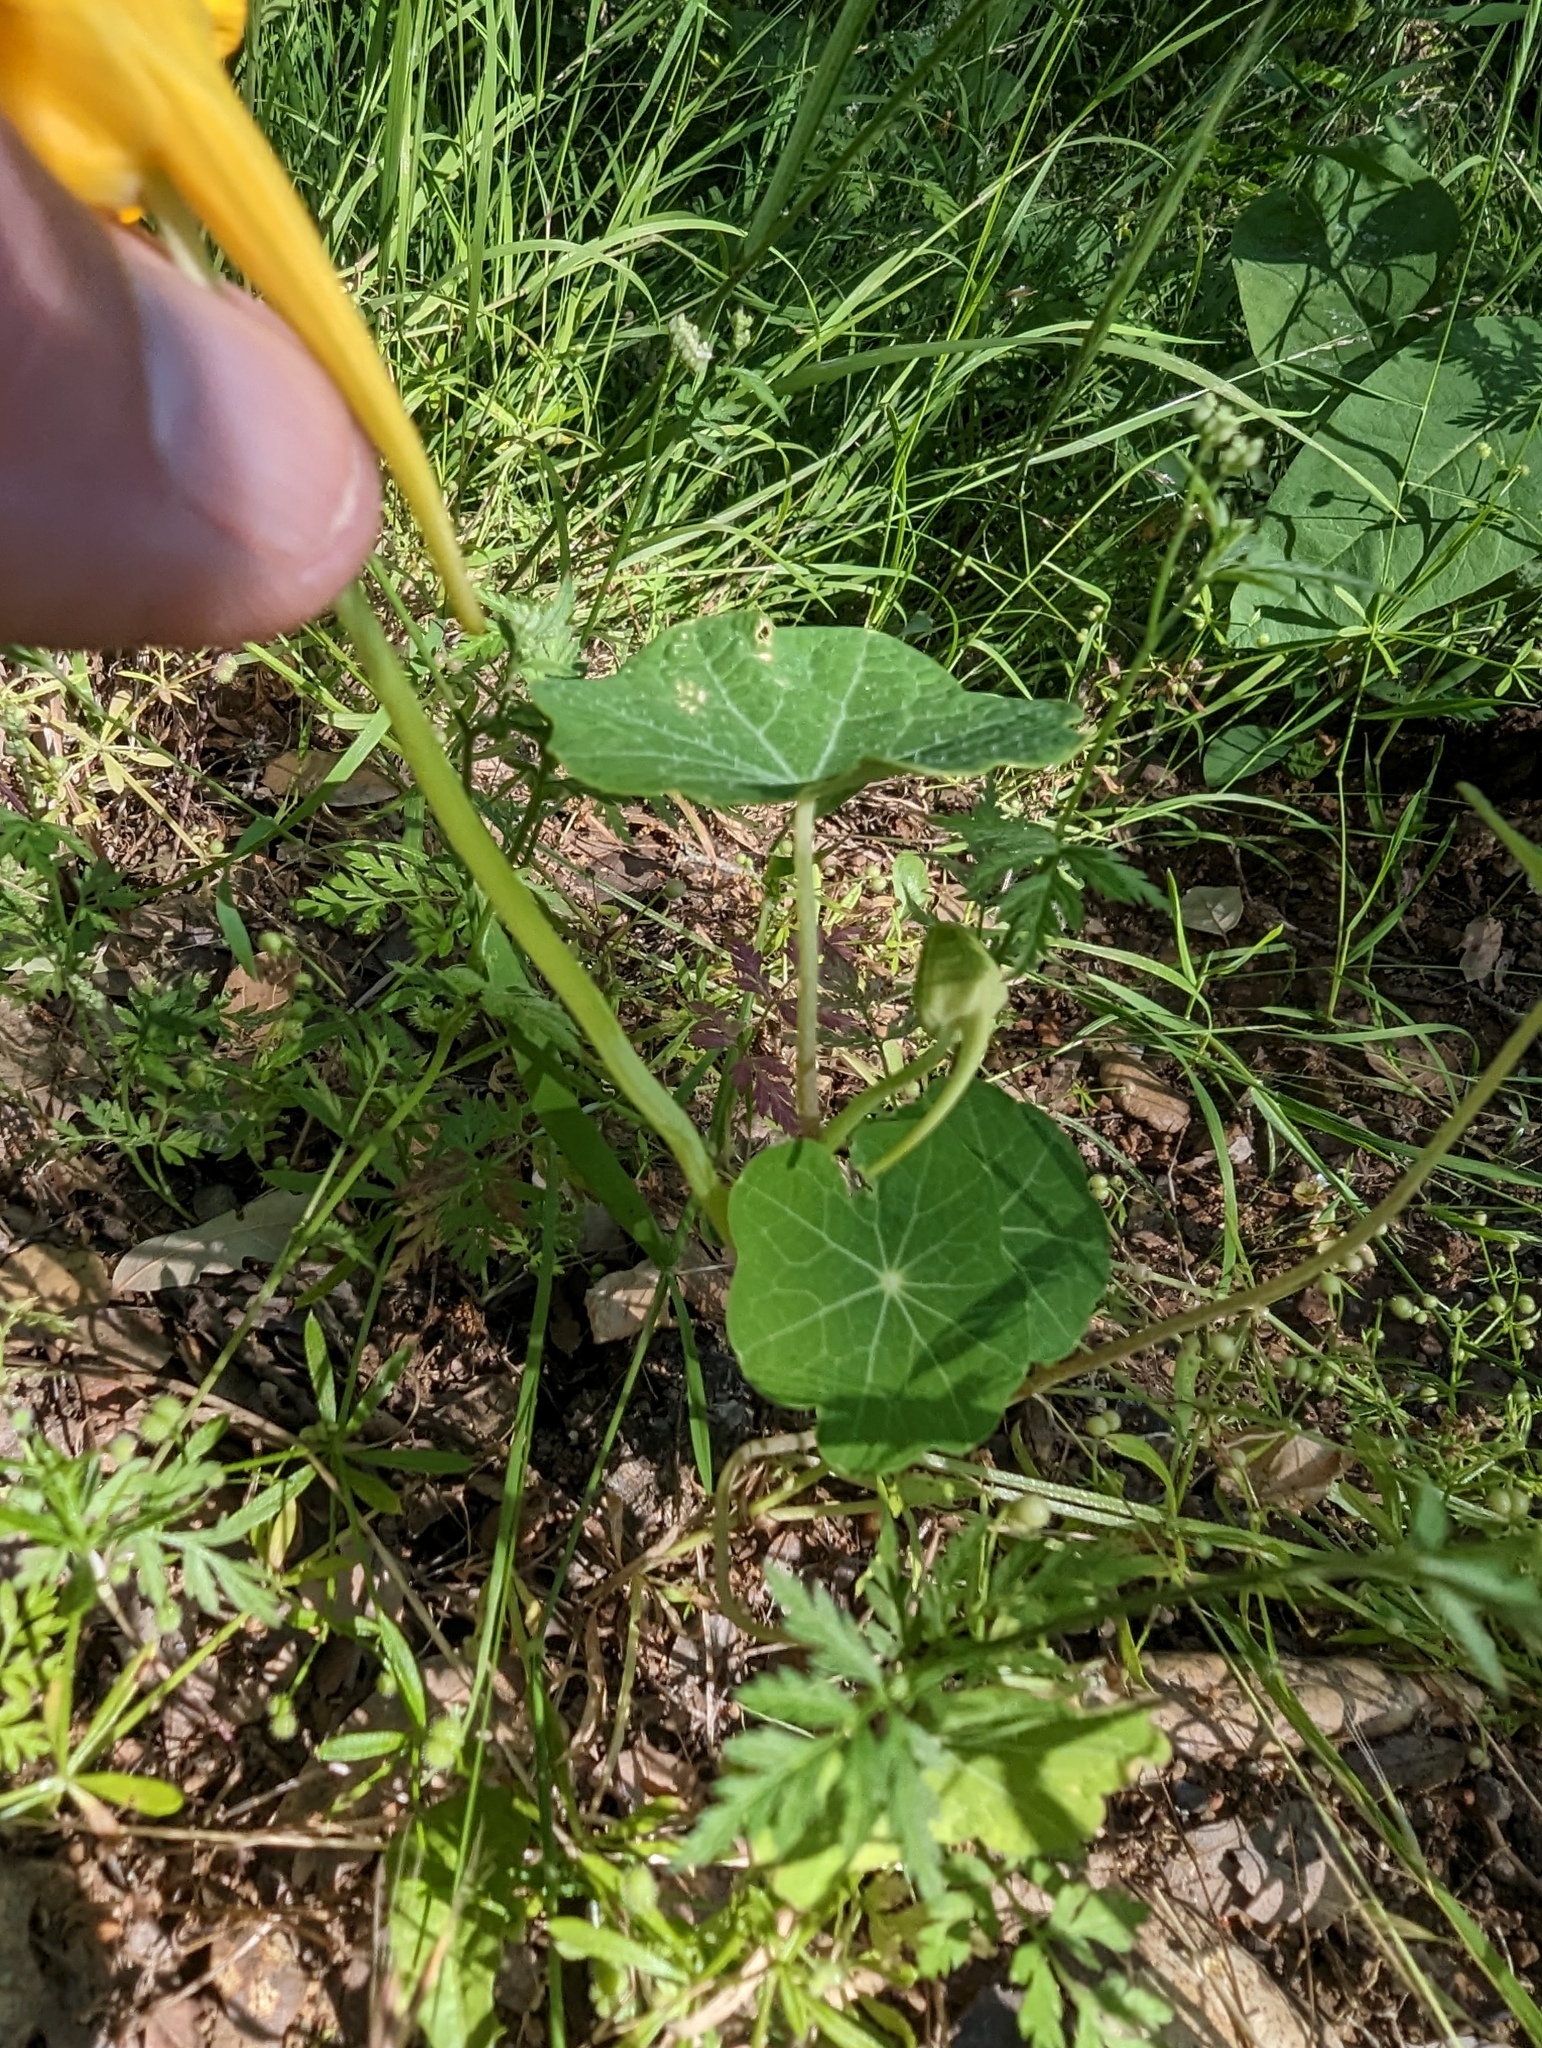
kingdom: Plantae
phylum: Tracheophyta
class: Magnoliopsida
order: Brassicales
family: Tropaeolaceae
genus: Tropaeolum
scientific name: Tropaeolum majus
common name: Nasturtium
